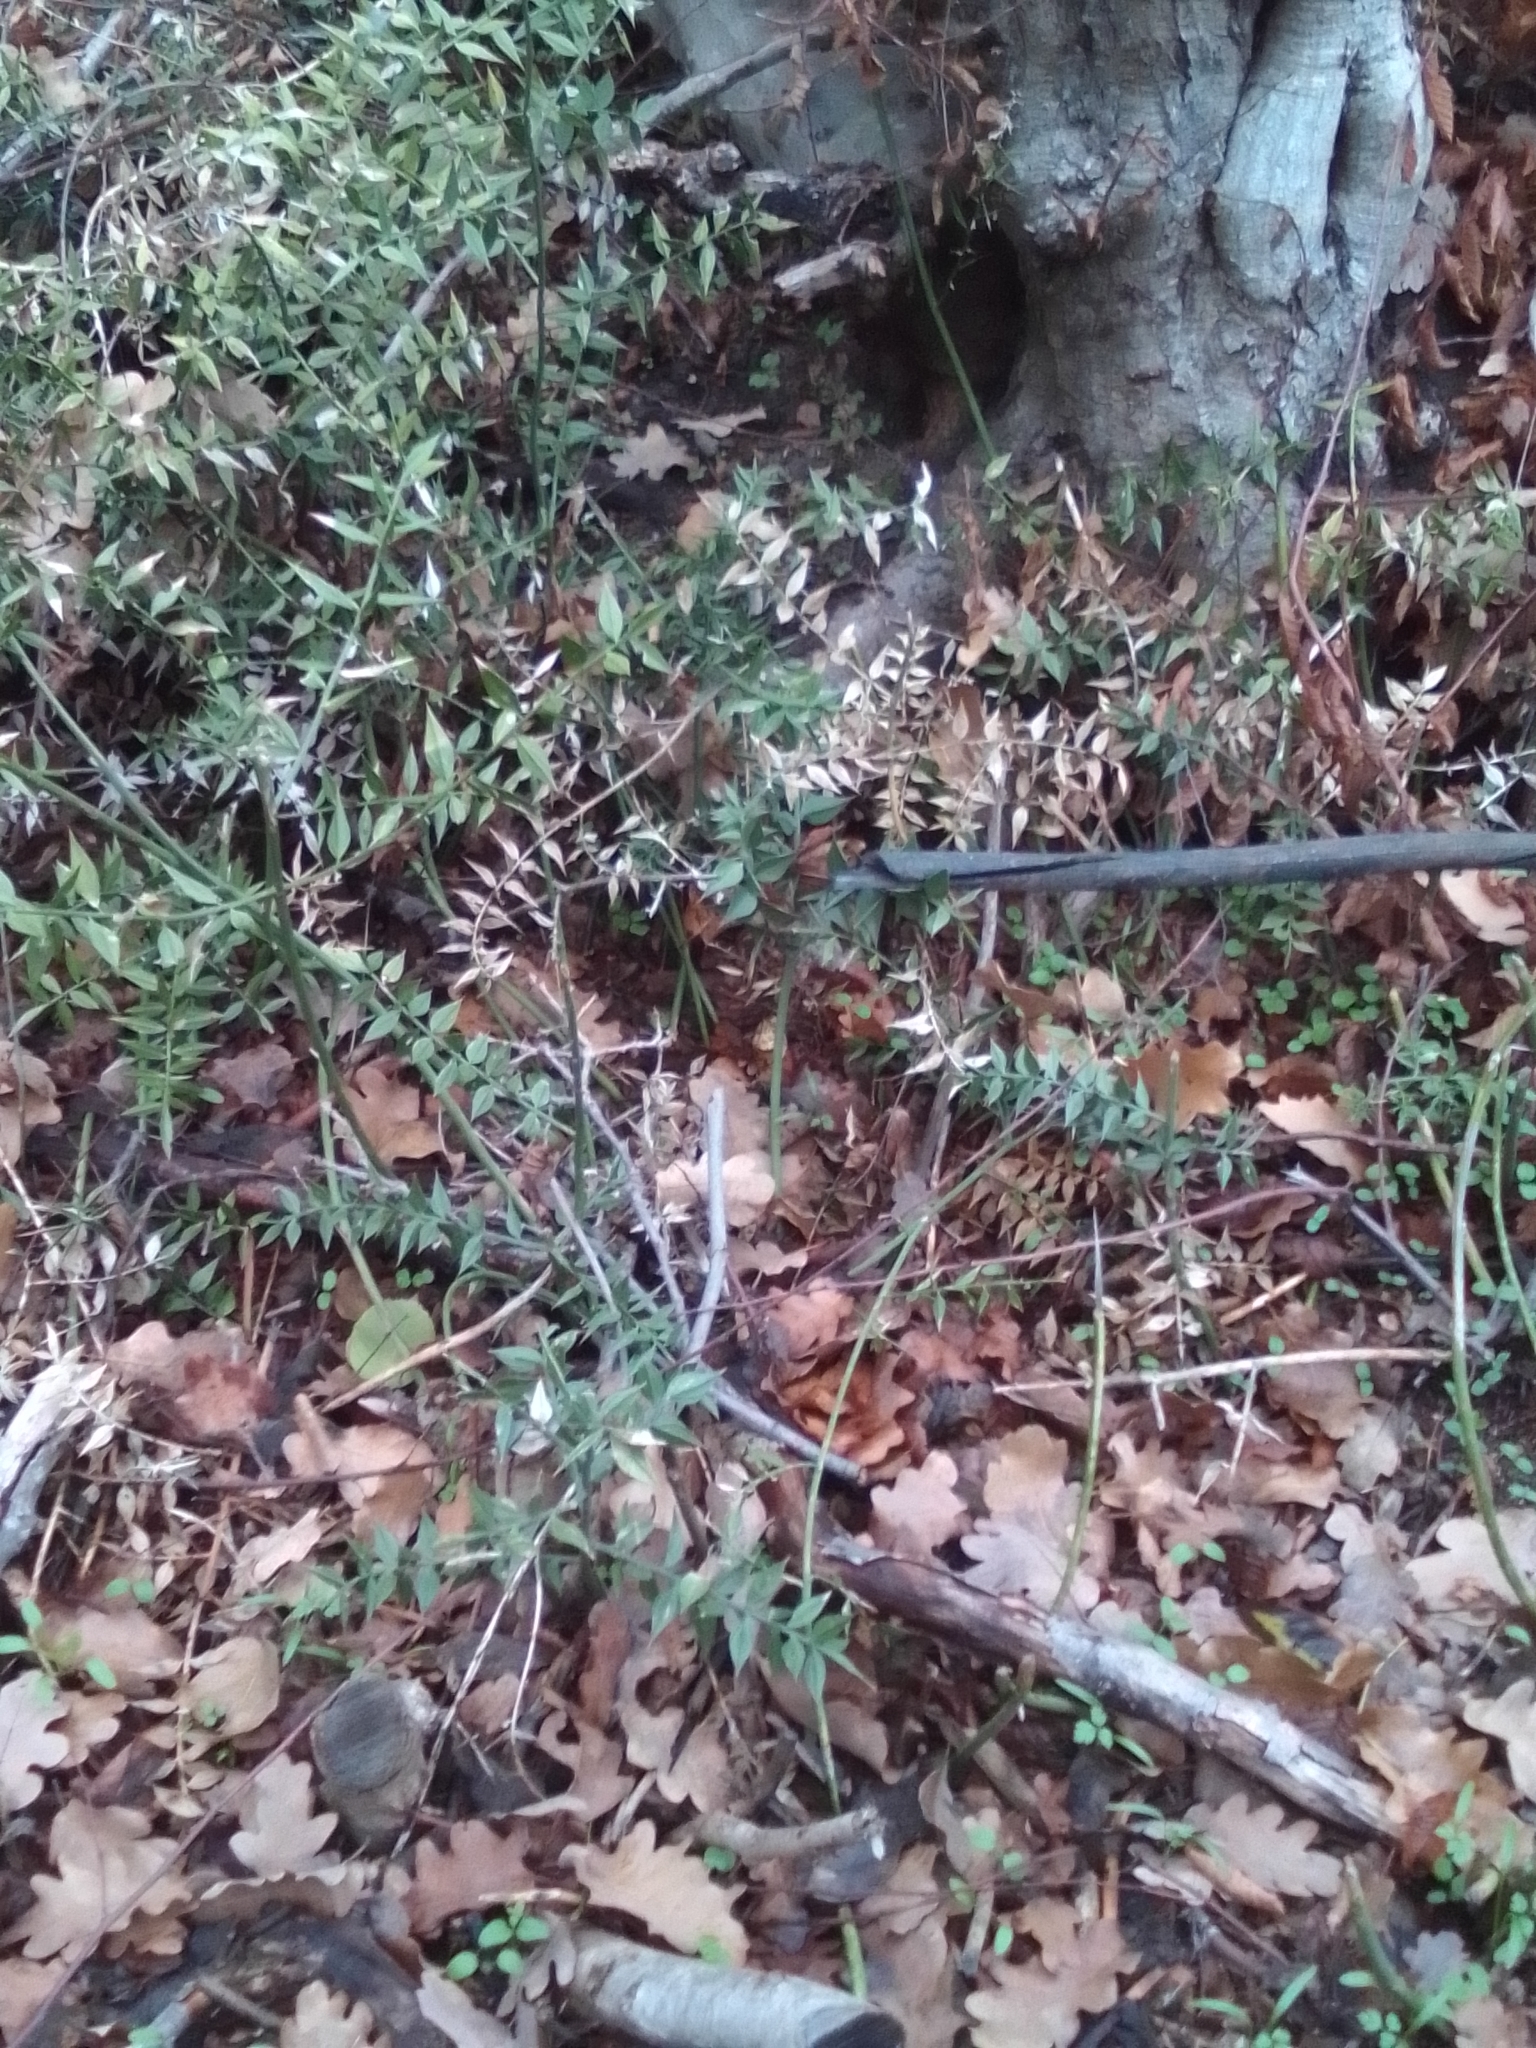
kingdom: Plantae
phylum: Tracheophyta
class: Liliopsida
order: Asparagales
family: Asparagaceae
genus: Ruscus
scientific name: Ruscus aculeatus
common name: Butcher's-broom
